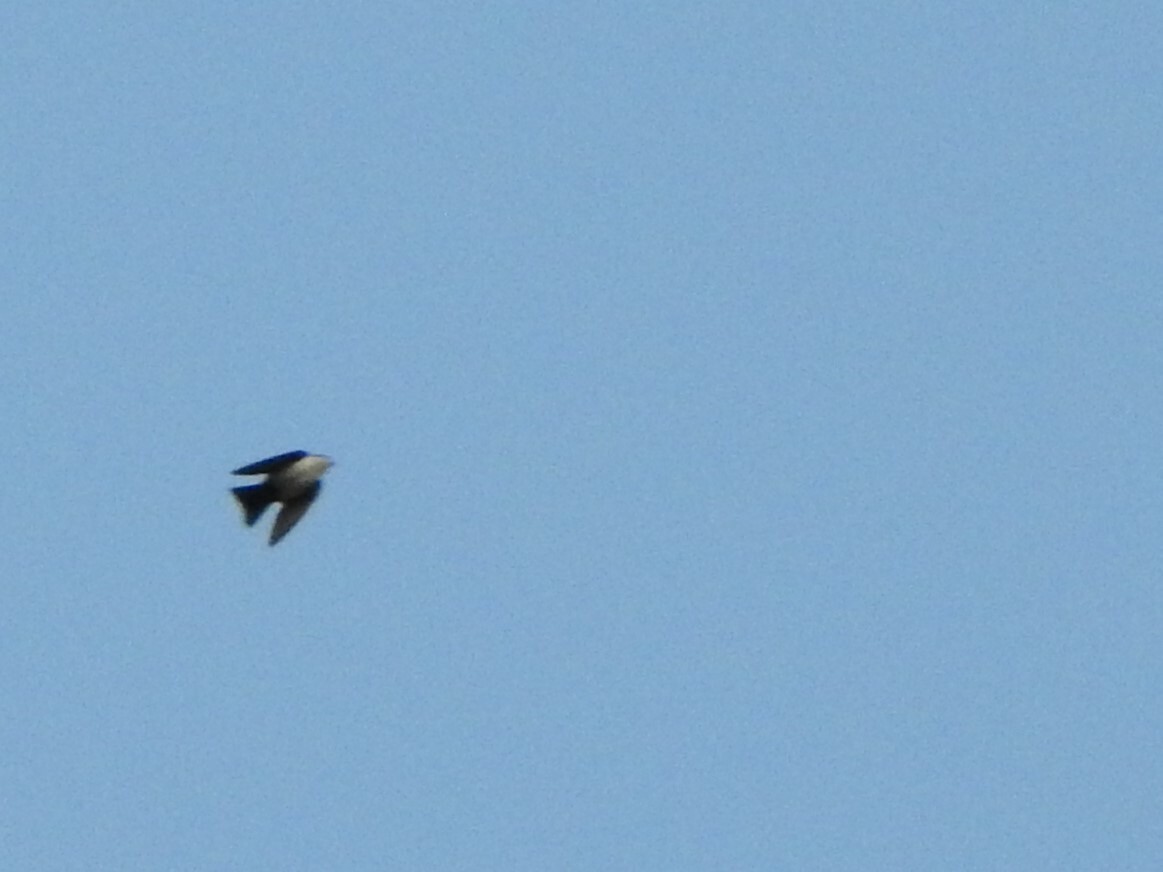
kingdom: Animalia
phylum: Chordata
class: Aves
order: Passeriformes
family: Hirundinidae
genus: Notiochelidon
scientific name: Notiochelidon cyanoleuca
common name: Blue-and-white swallow
